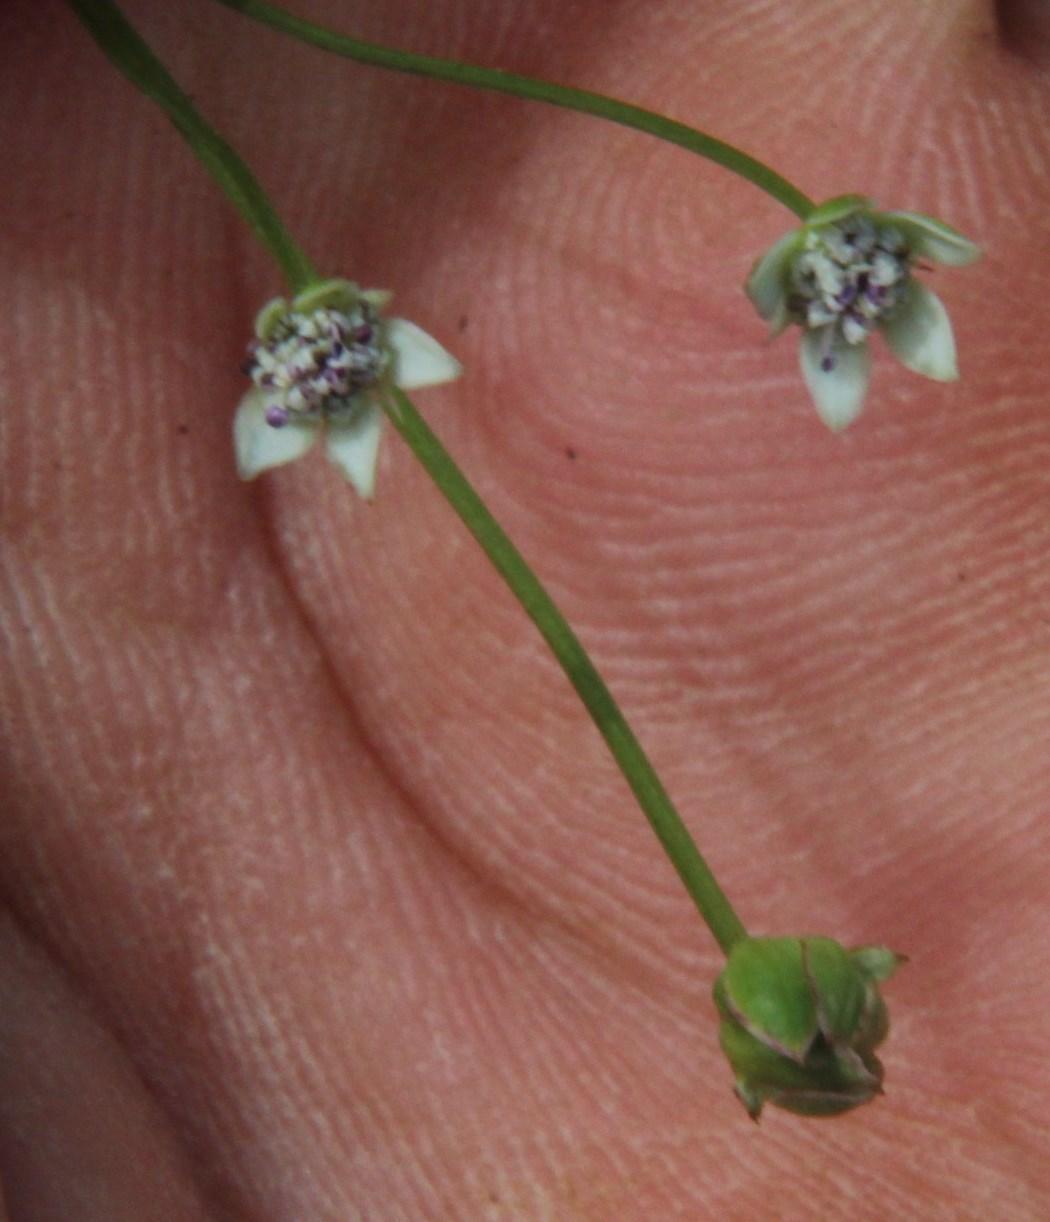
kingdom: Plantae
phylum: Tracheophyta
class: Magnoliopsida
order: Apiales
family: Apiaceae
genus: Alepidea
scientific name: Alepidea serrata
